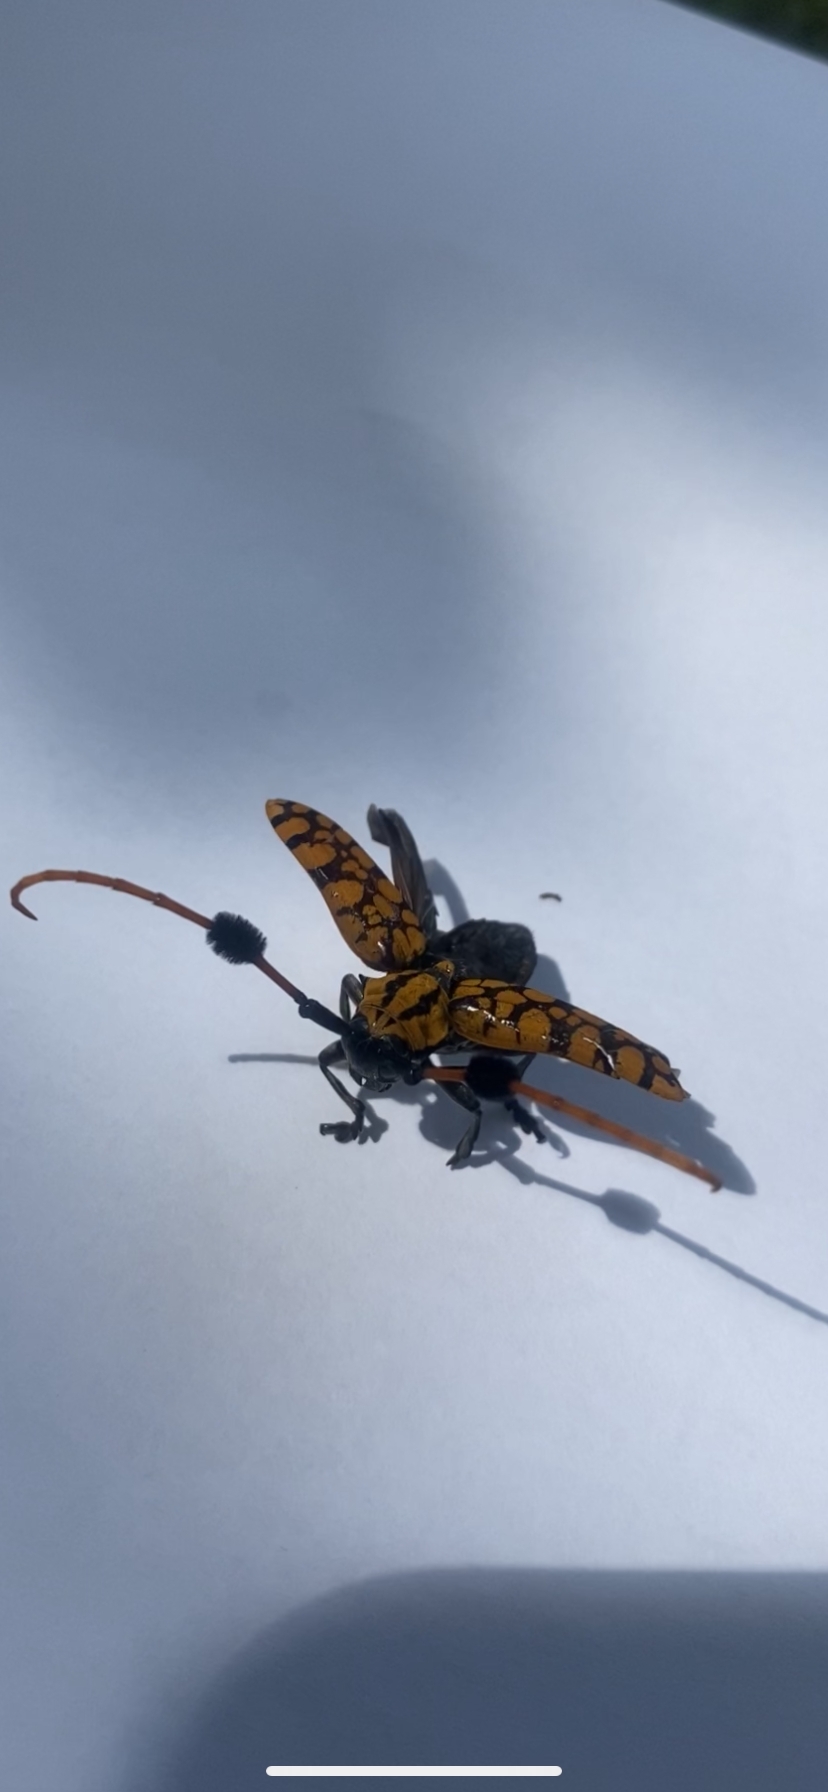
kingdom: Animalia
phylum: Arthropoda
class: Insecta
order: Coleoptera
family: Cerambycidae
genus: Aristobia
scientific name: Aristobia approximator
